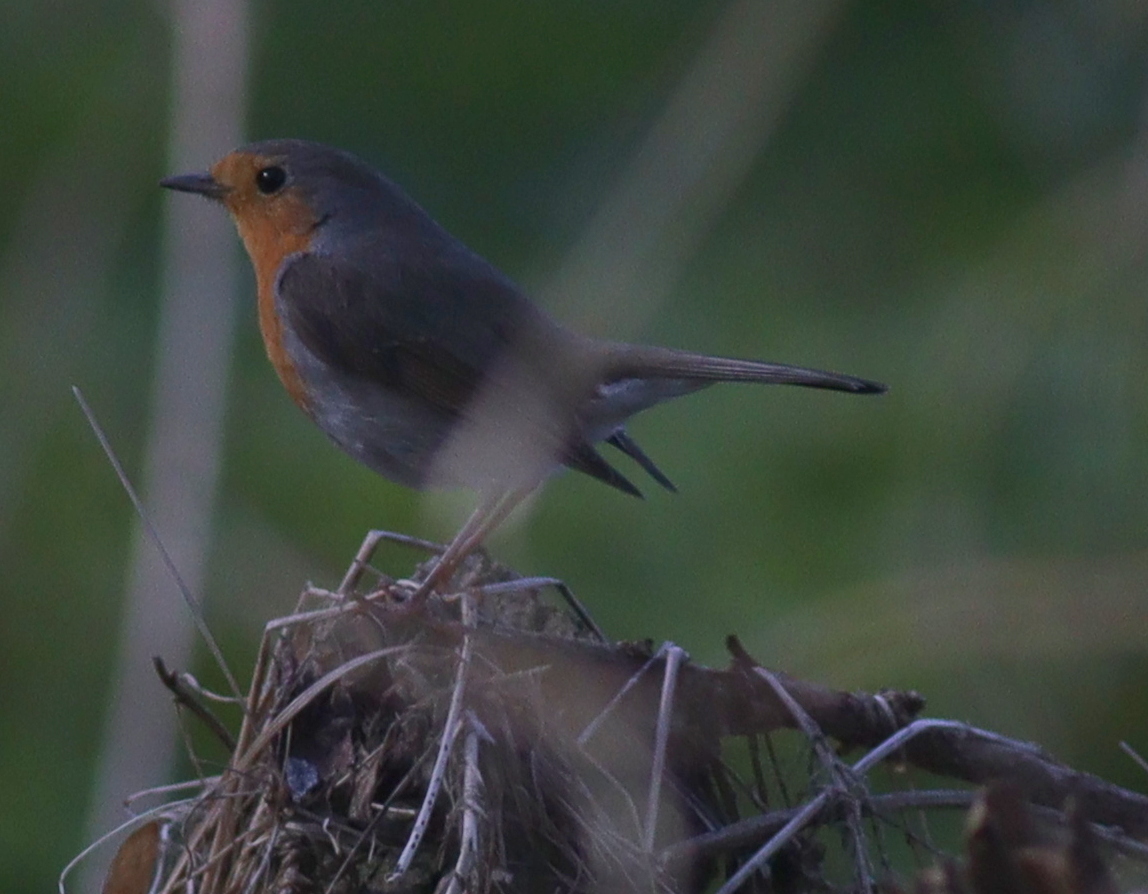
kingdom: Animalia
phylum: Chordata
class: Aves
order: Passeriformes
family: Muscicapidae
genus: Erithacus
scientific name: Erithacus rubecula
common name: European robin
